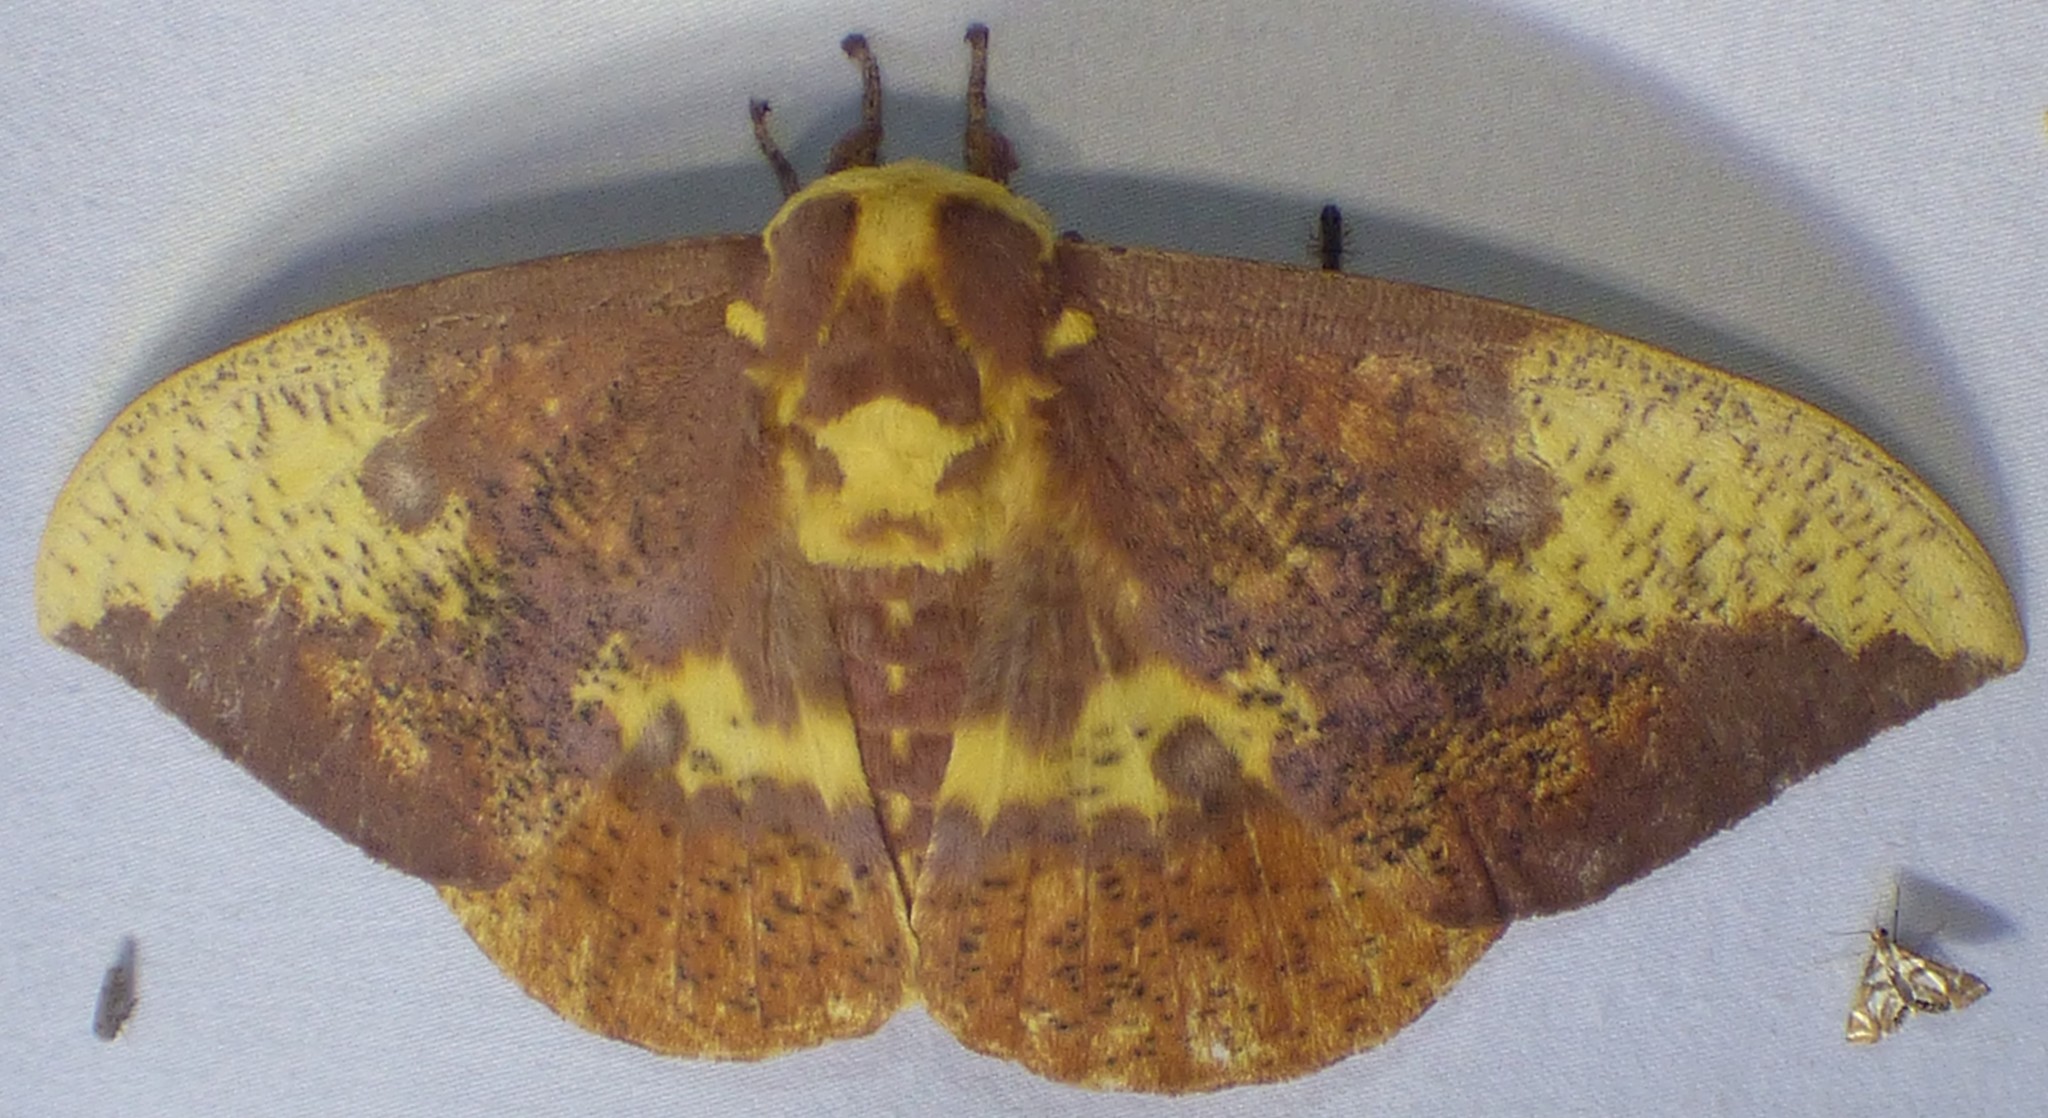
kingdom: Animalia
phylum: Arthropoda
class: Insecta
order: Lepidoptera
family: Saturniidae
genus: Eacles
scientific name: Eacles imperialis
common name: Imperial moth
